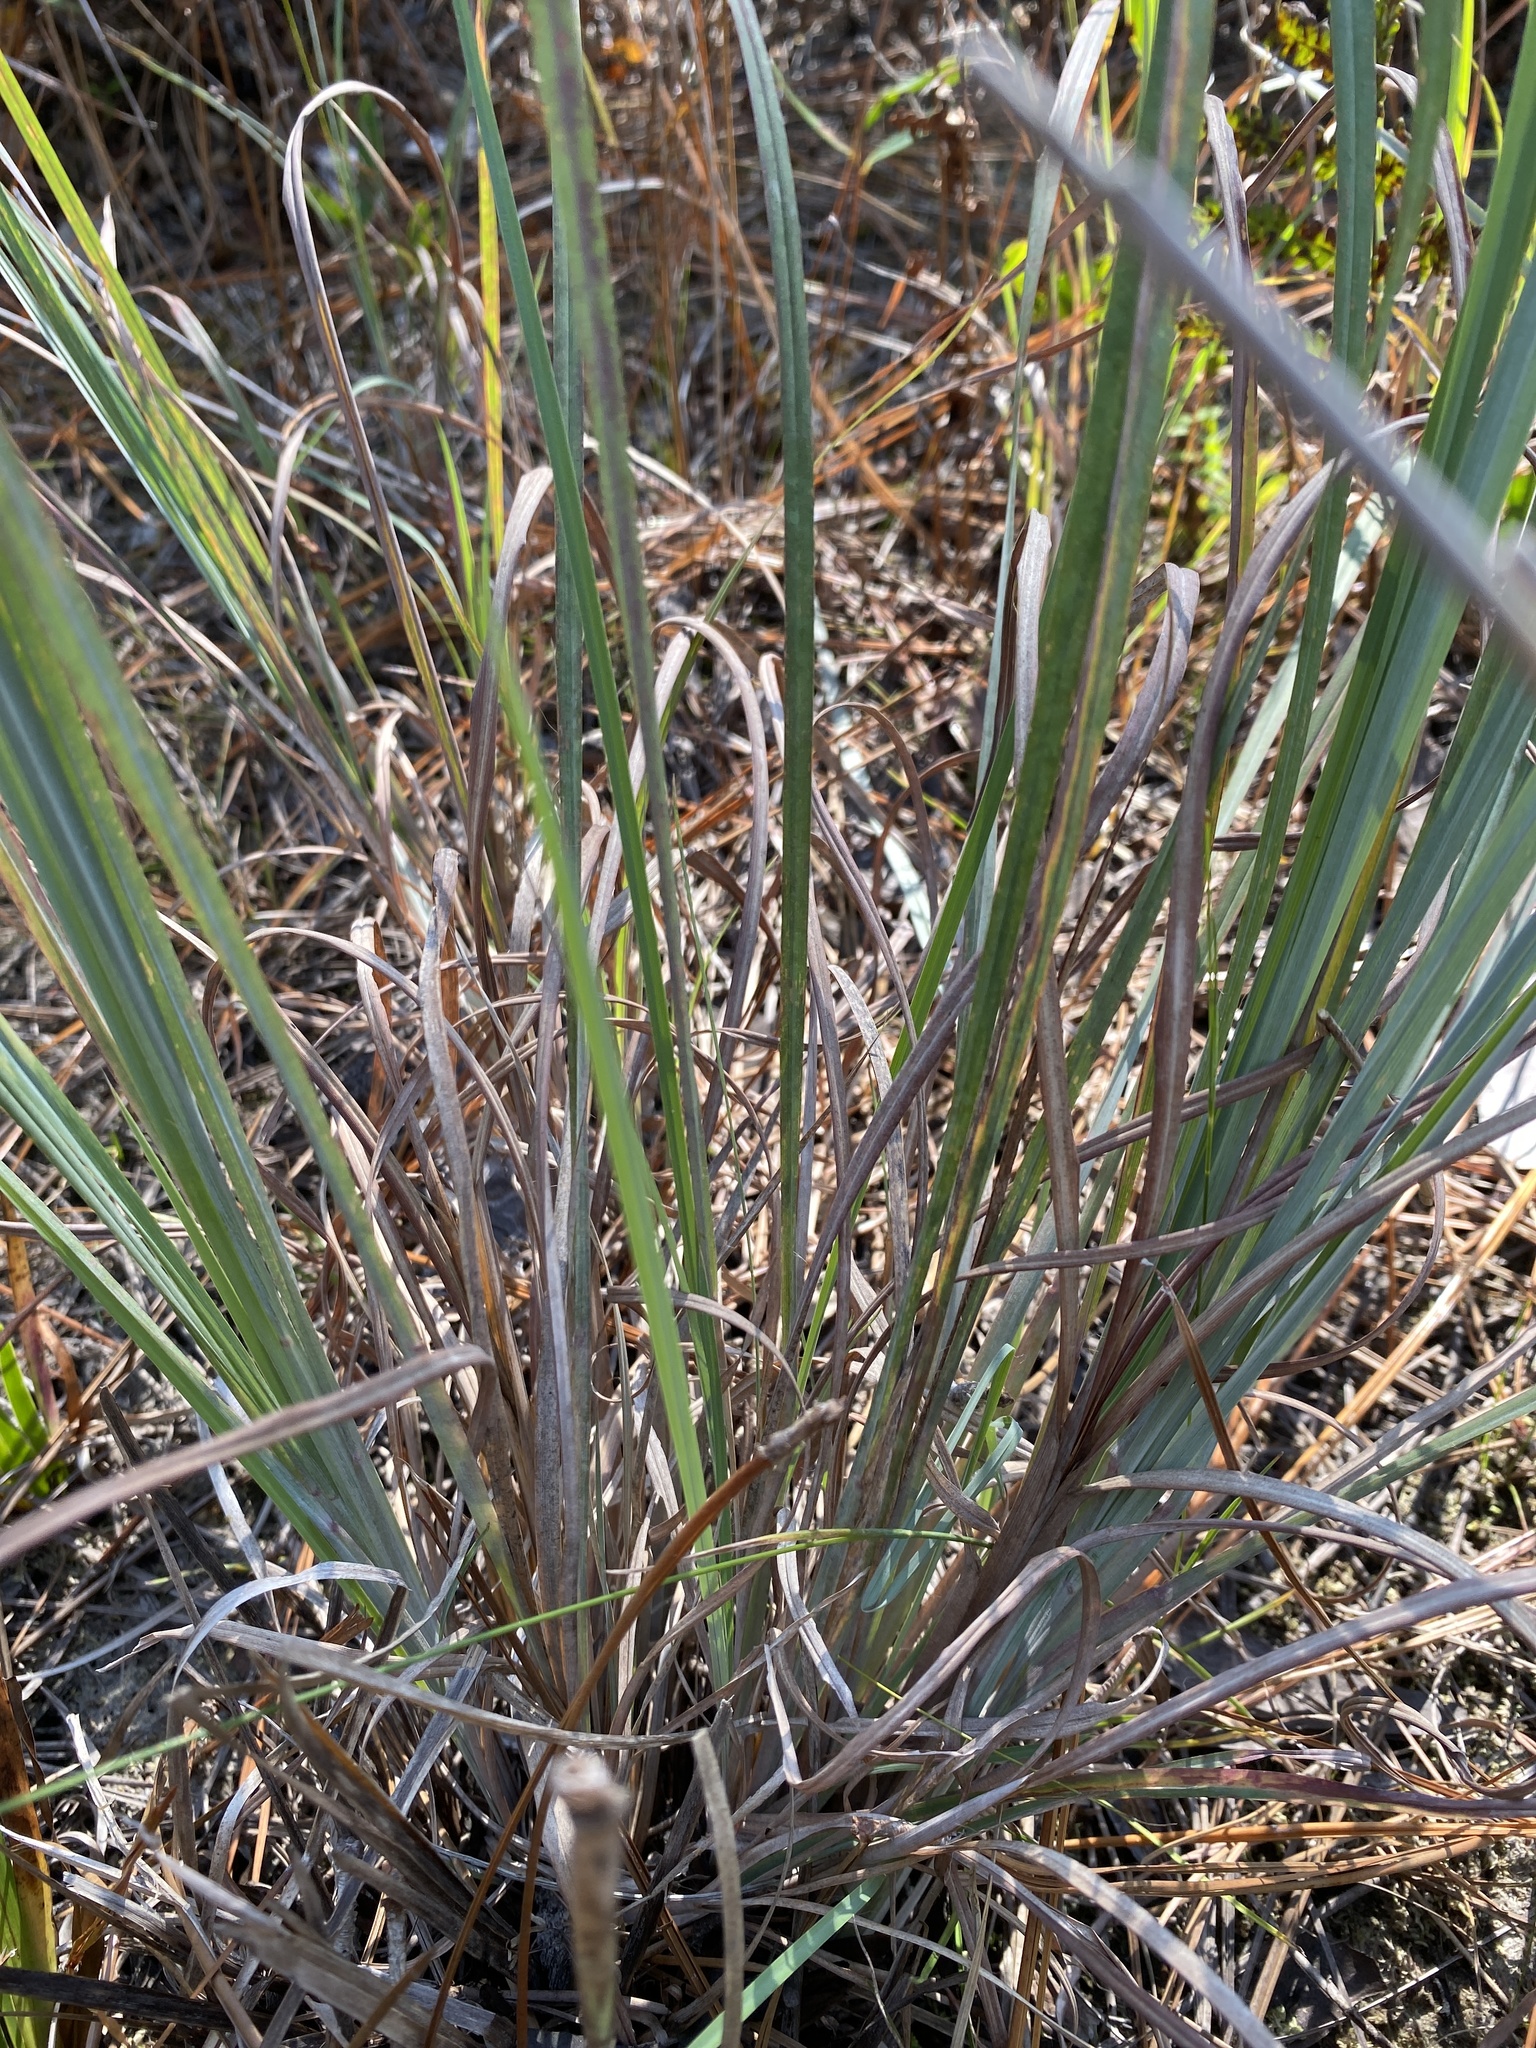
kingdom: Plantae
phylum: Tracheophyta
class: Liliopsida
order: Poales
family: Poaceae
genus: Andropogon
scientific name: Andropogon cretaceus
